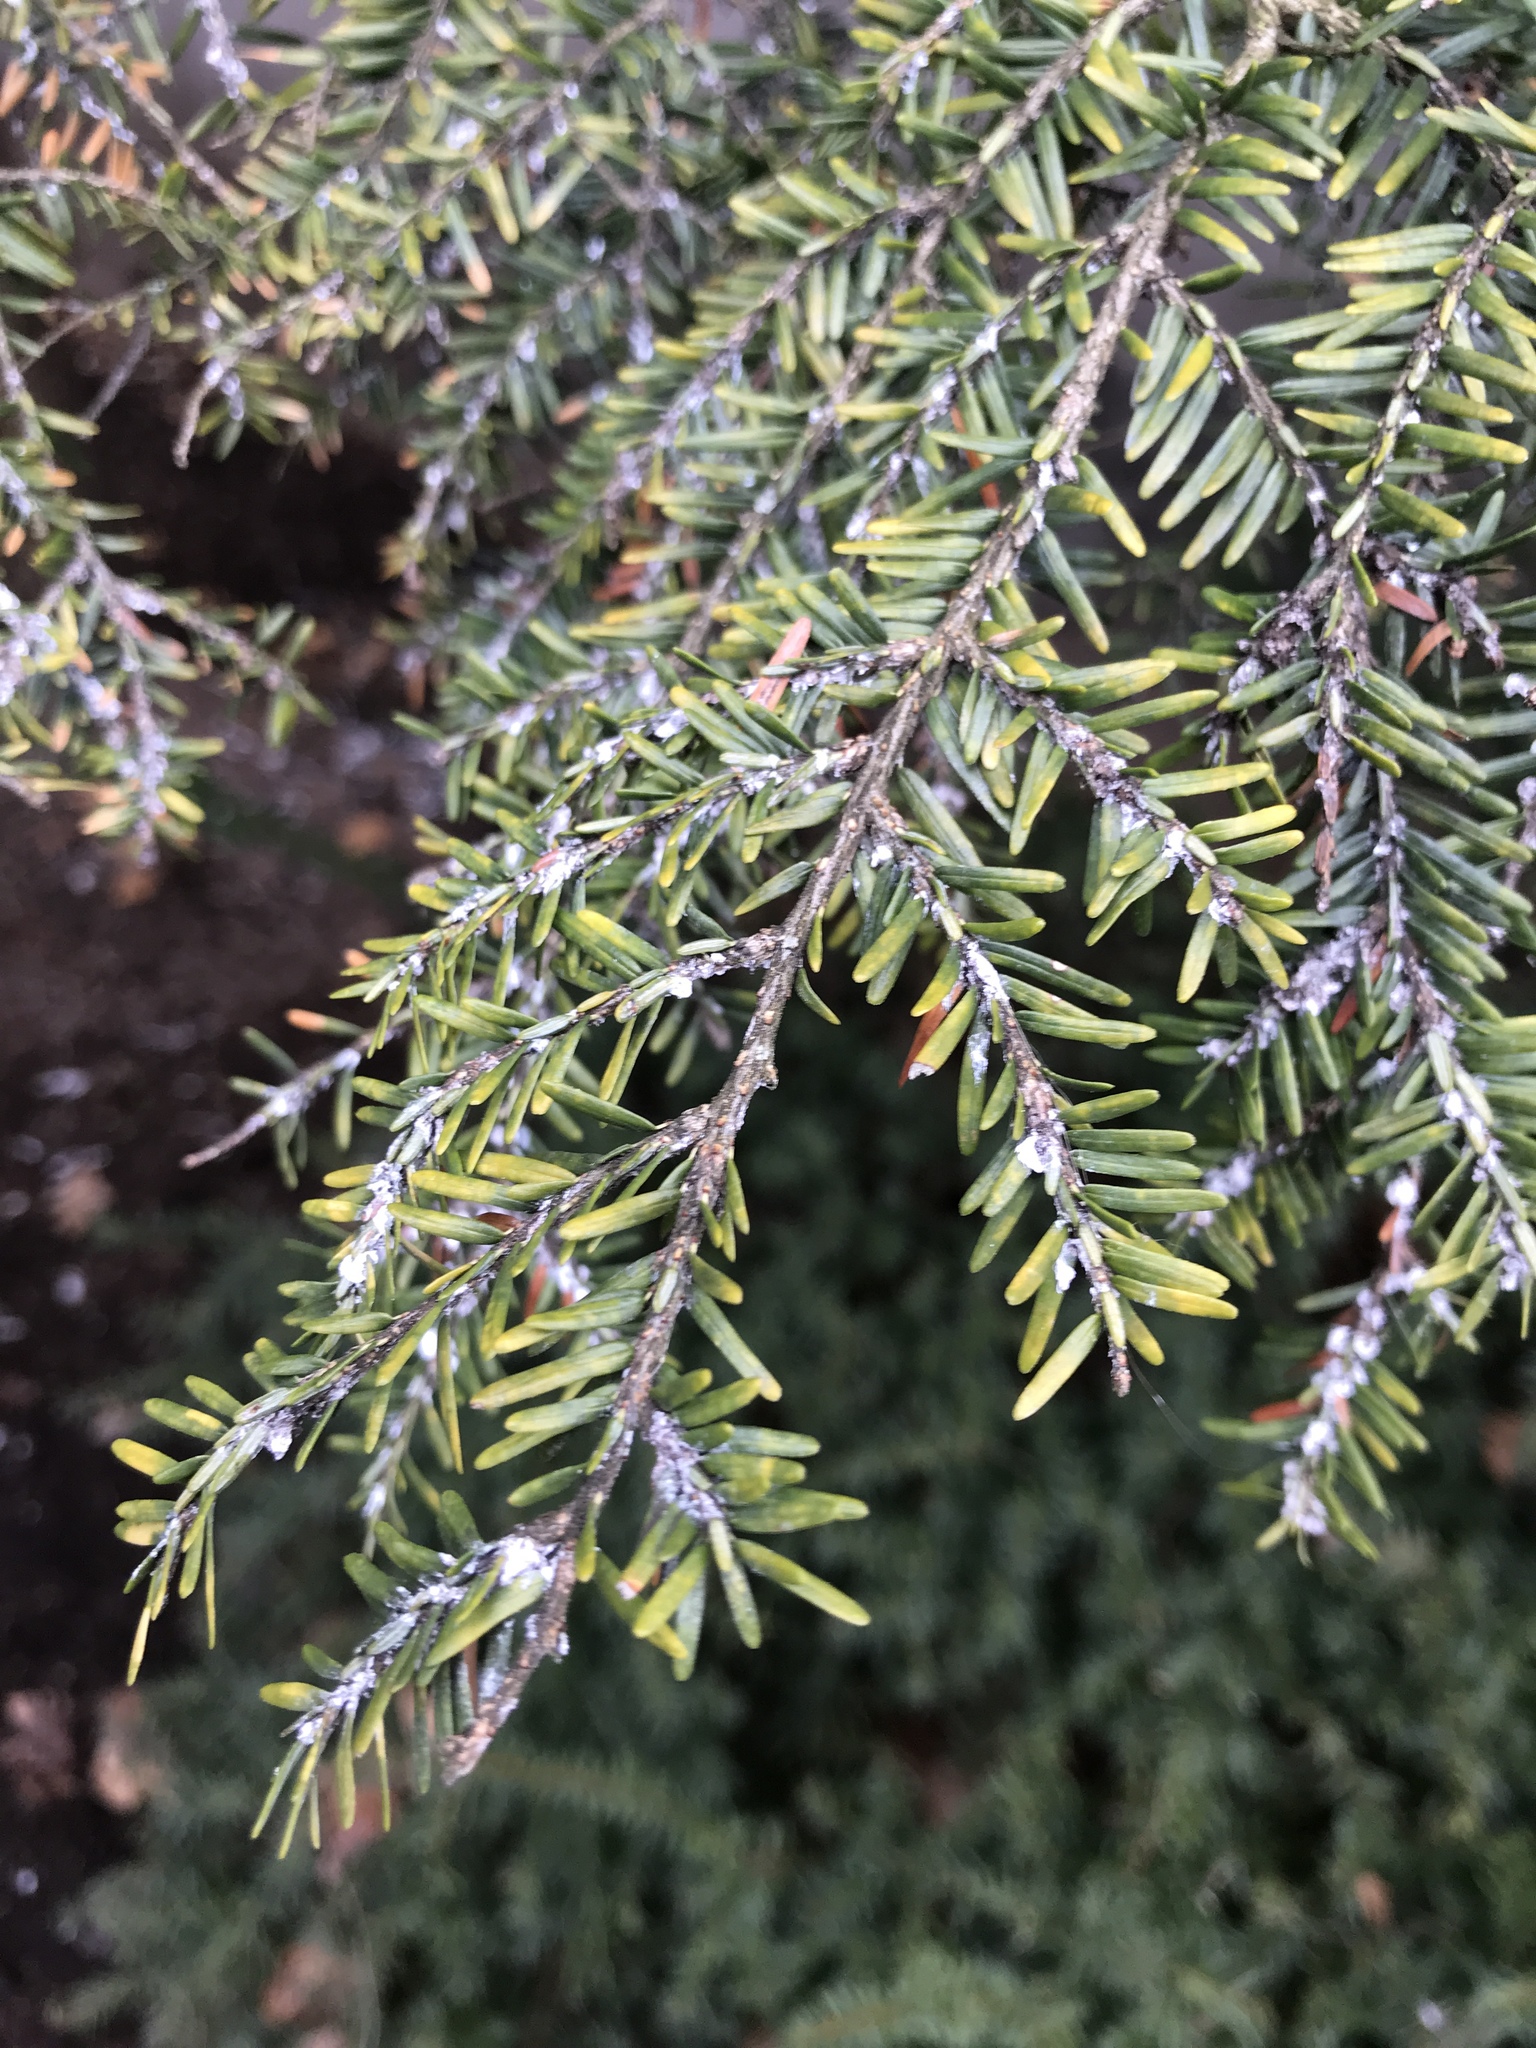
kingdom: Animalia
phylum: Arthropoda
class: Insecta
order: Hemiptera
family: Adelgidae
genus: Adelges
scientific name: Adelges tsugae
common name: Hemlock woolly adelgid
